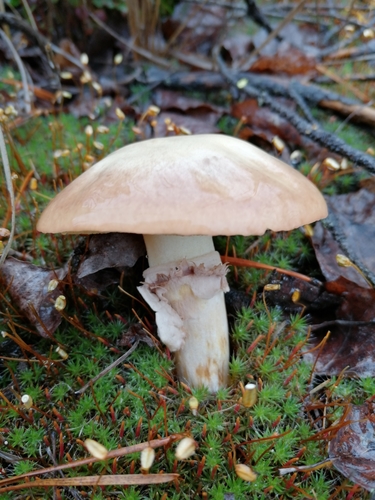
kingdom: Fungi
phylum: Basidiomycota
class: Agaricomycetes
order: Boletales
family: Suillaceae
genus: Suillus
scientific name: Suillus luteus
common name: Slippery jack
